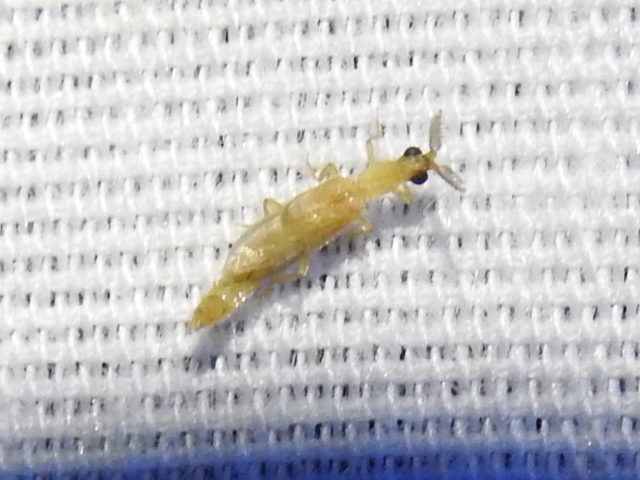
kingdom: Animalia
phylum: Arthropoda
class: Insecta
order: Coleoptera
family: Phengodidae
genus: Cenophengus
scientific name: Cenophengus pallidus
